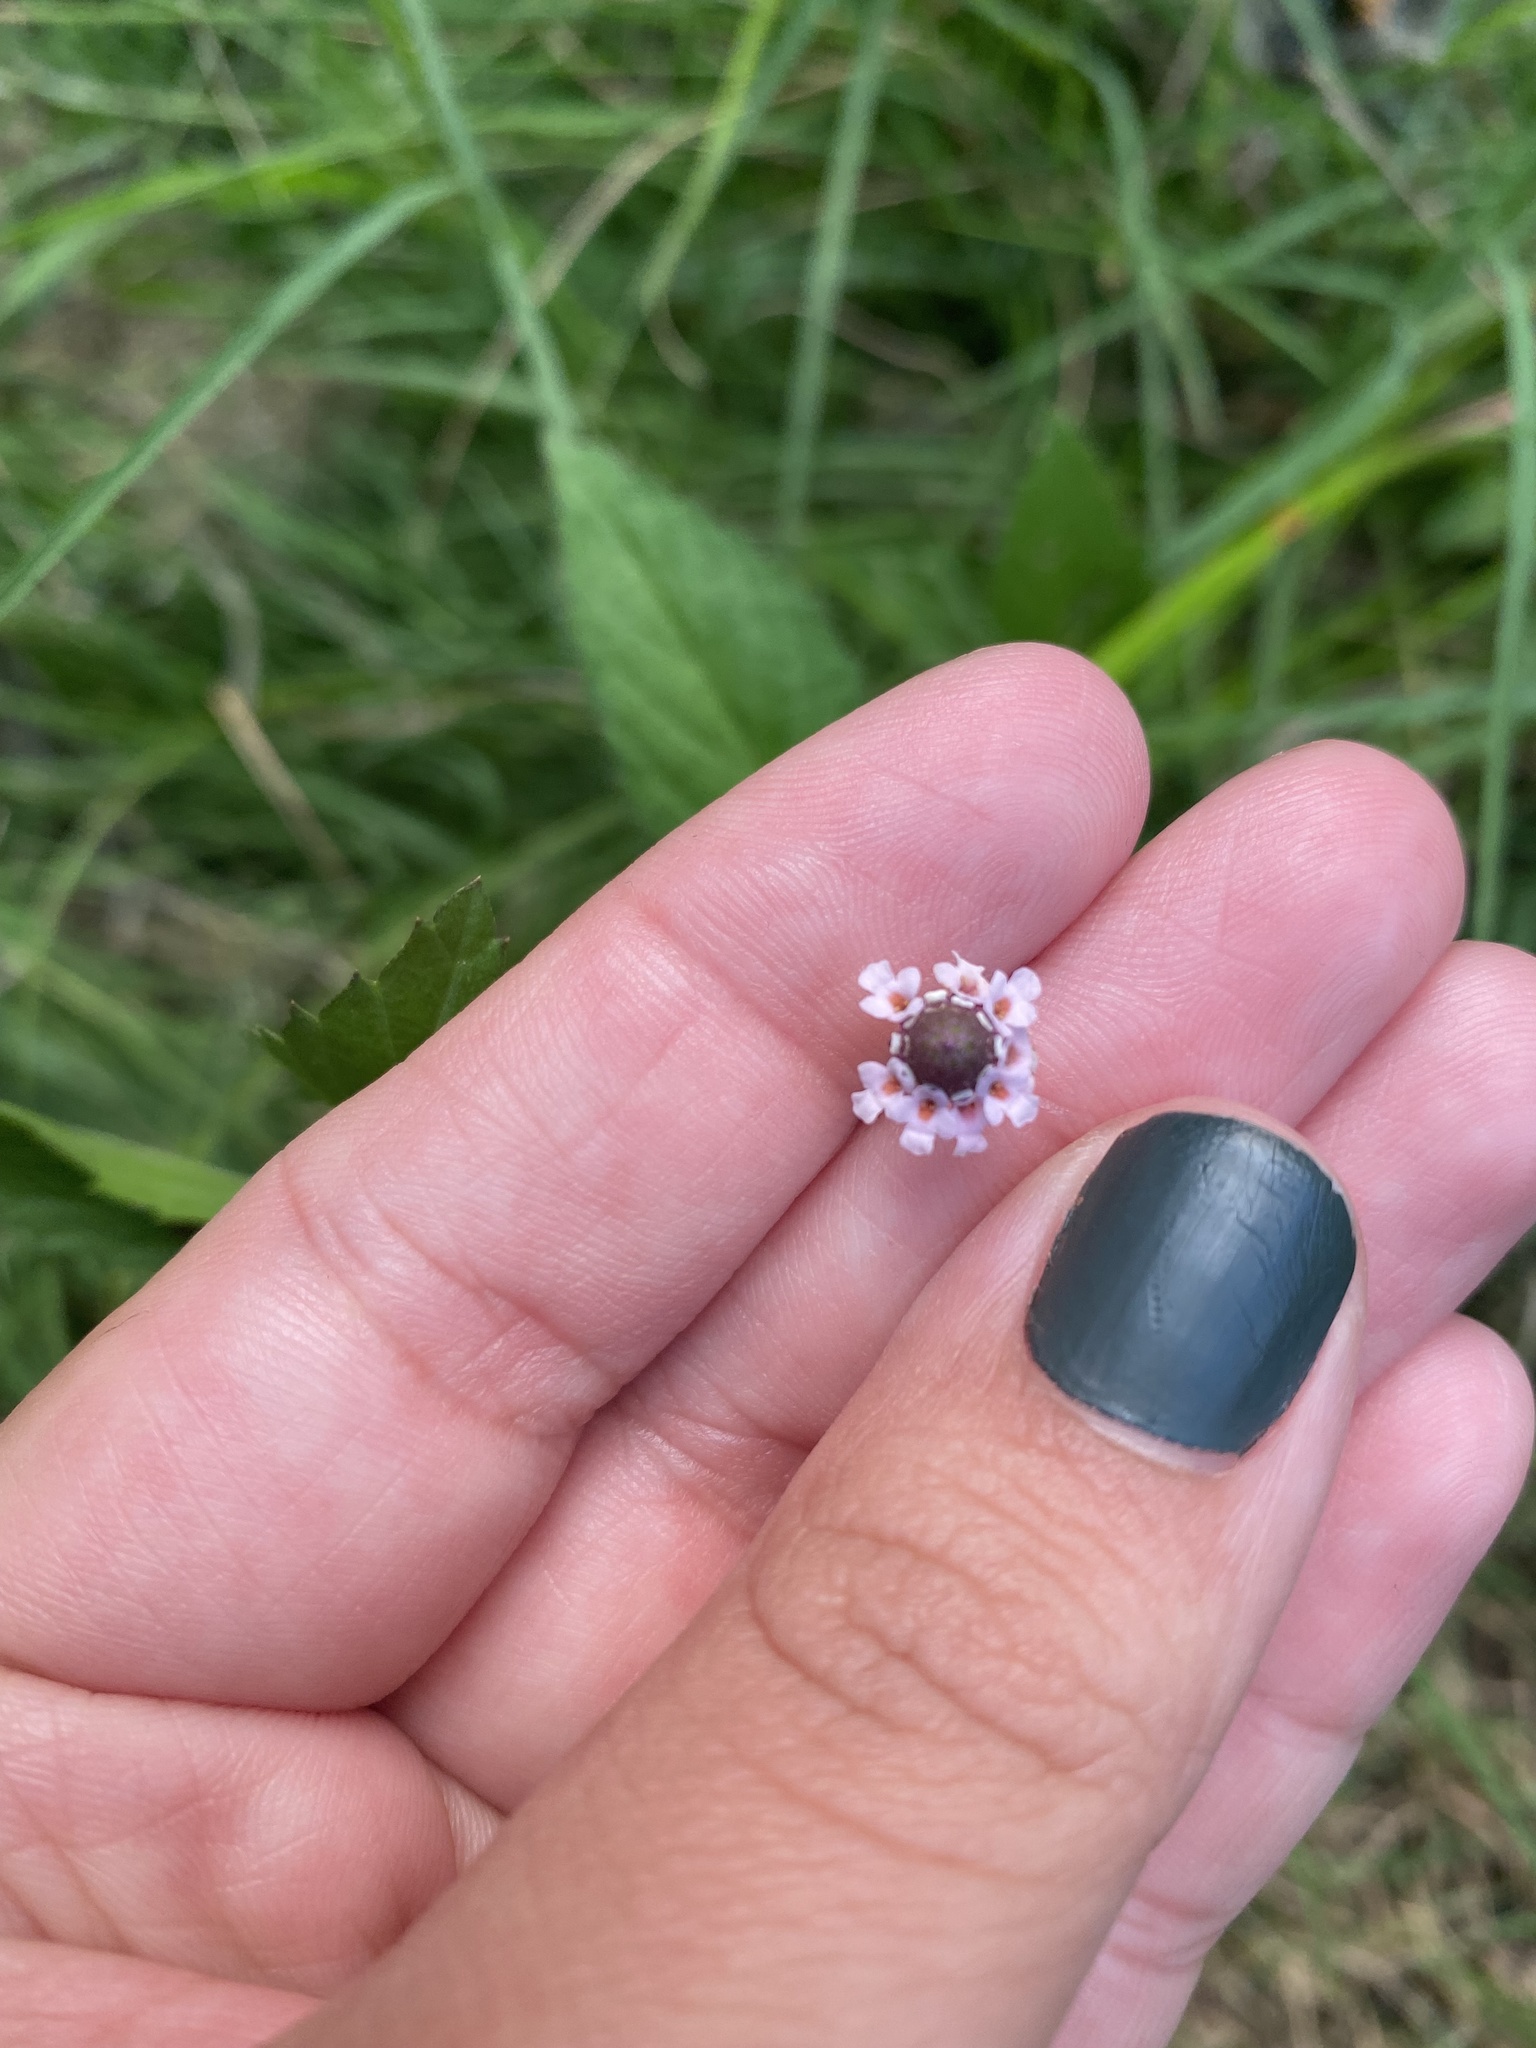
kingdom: Plantae
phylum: Tracheophyta
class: Magnoliopsida
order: Lamiales
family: Verbenaceae
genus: Phyla
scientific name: Phyla lanceolata
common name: Northern fogfruit
